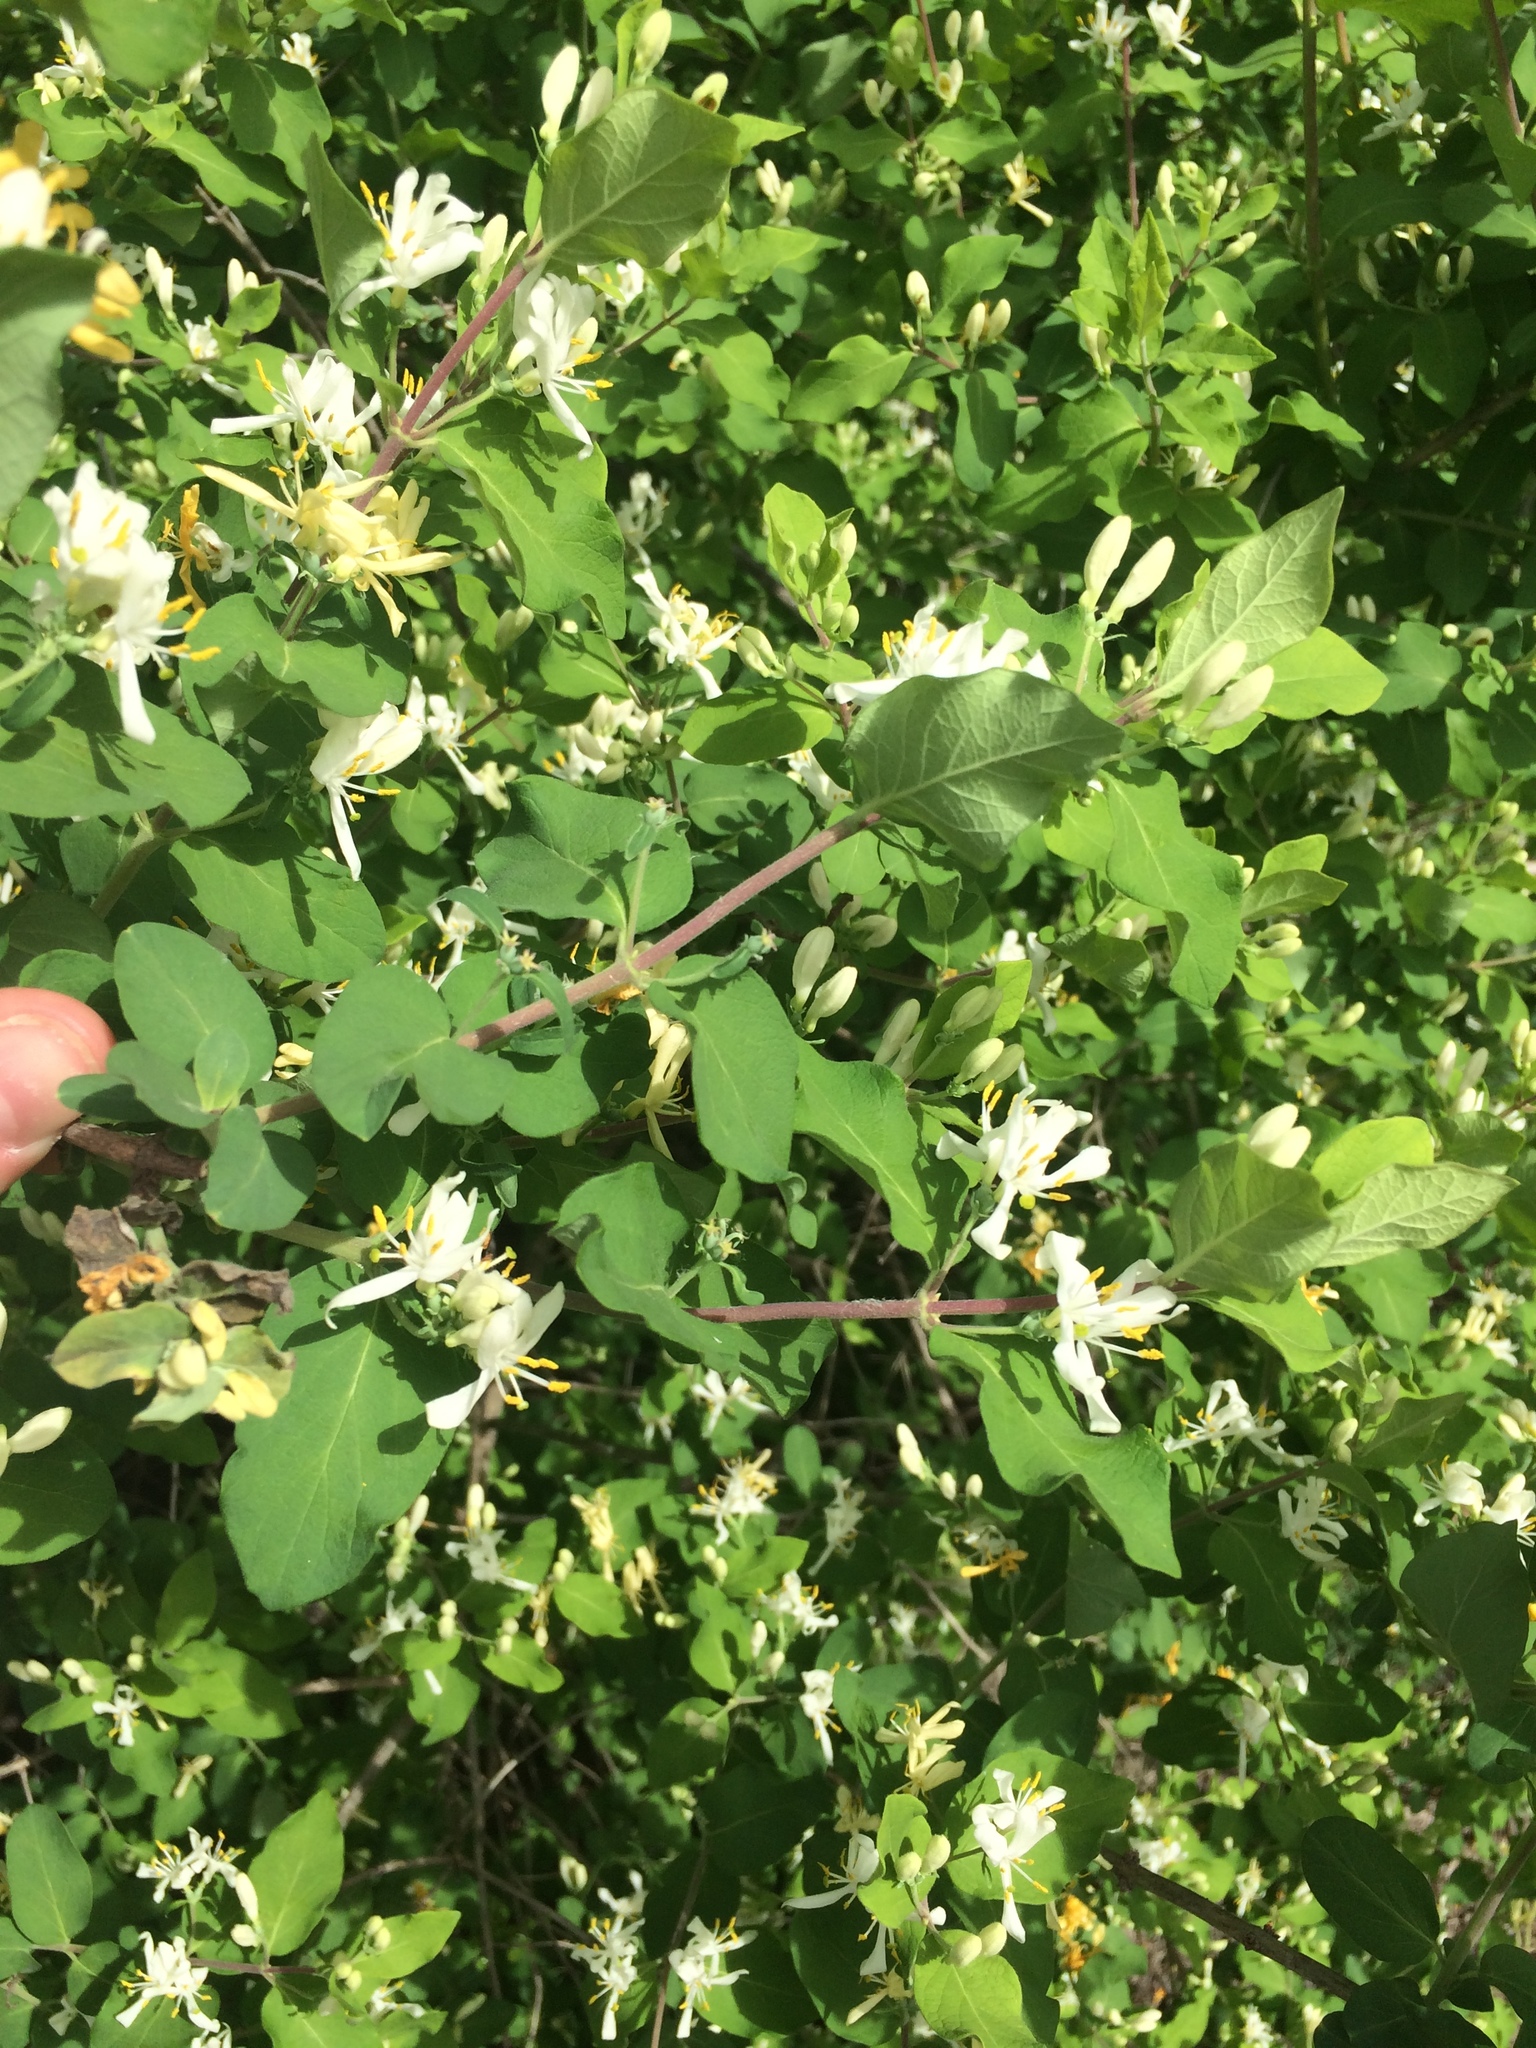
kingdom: Plantae
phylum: Tracheophyta
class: Magnoliopsida
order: Dipsacales
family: Caprifoliaceae
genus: Lonicera
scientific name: Lonicera bella
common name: Bell's honeysuckle
